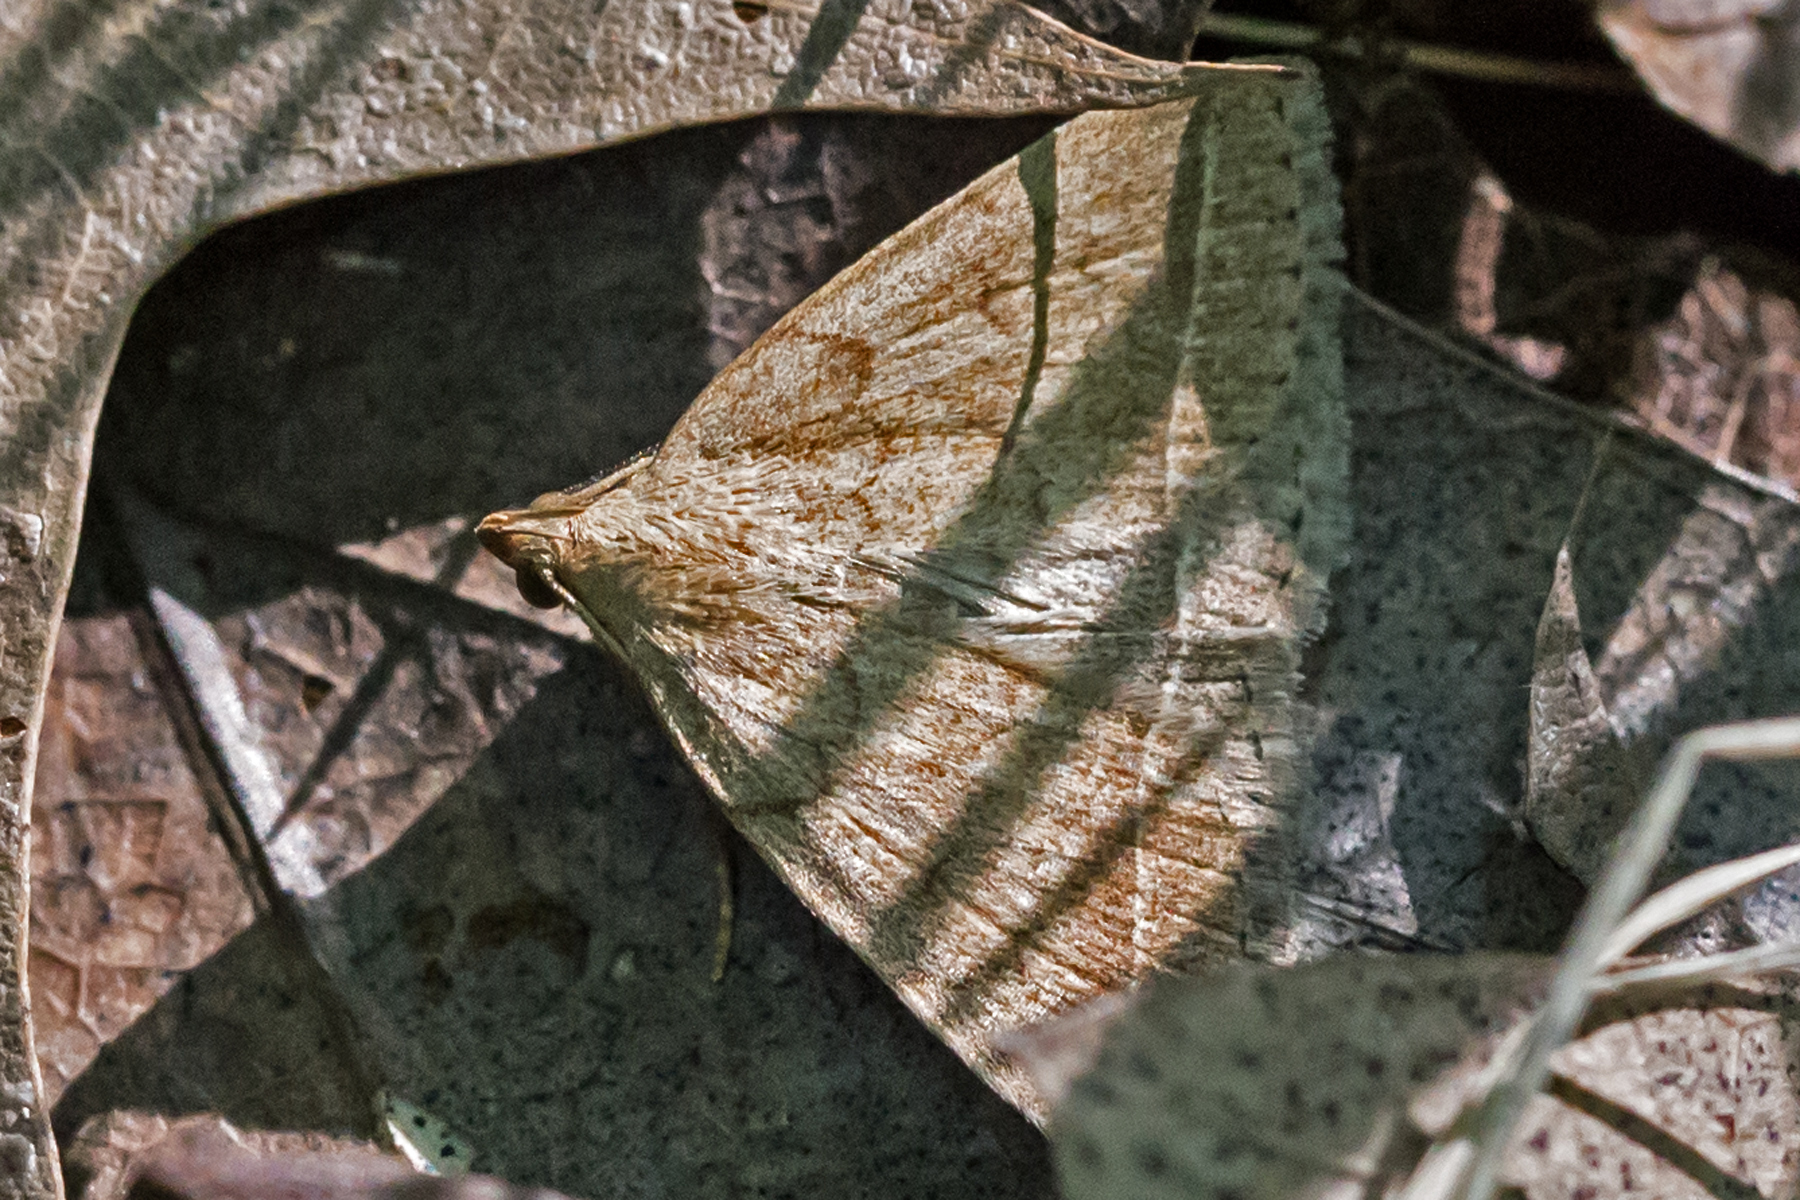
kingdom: Animalia
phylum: Arthropoda
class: Insecta
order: Lepidoptera
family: Erebidae
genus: Zanclognatha
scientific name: Zanclognatha jacchusalis
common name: Yellowish zanclognatha
